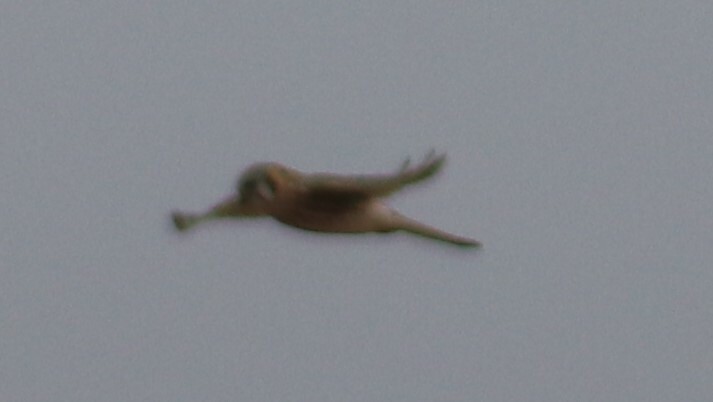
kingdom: Animalia
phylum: Chordata
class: Aves
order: Falconiformes
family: Falconidae
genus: Falco
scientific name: Falco sparverius
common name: American kestrel
